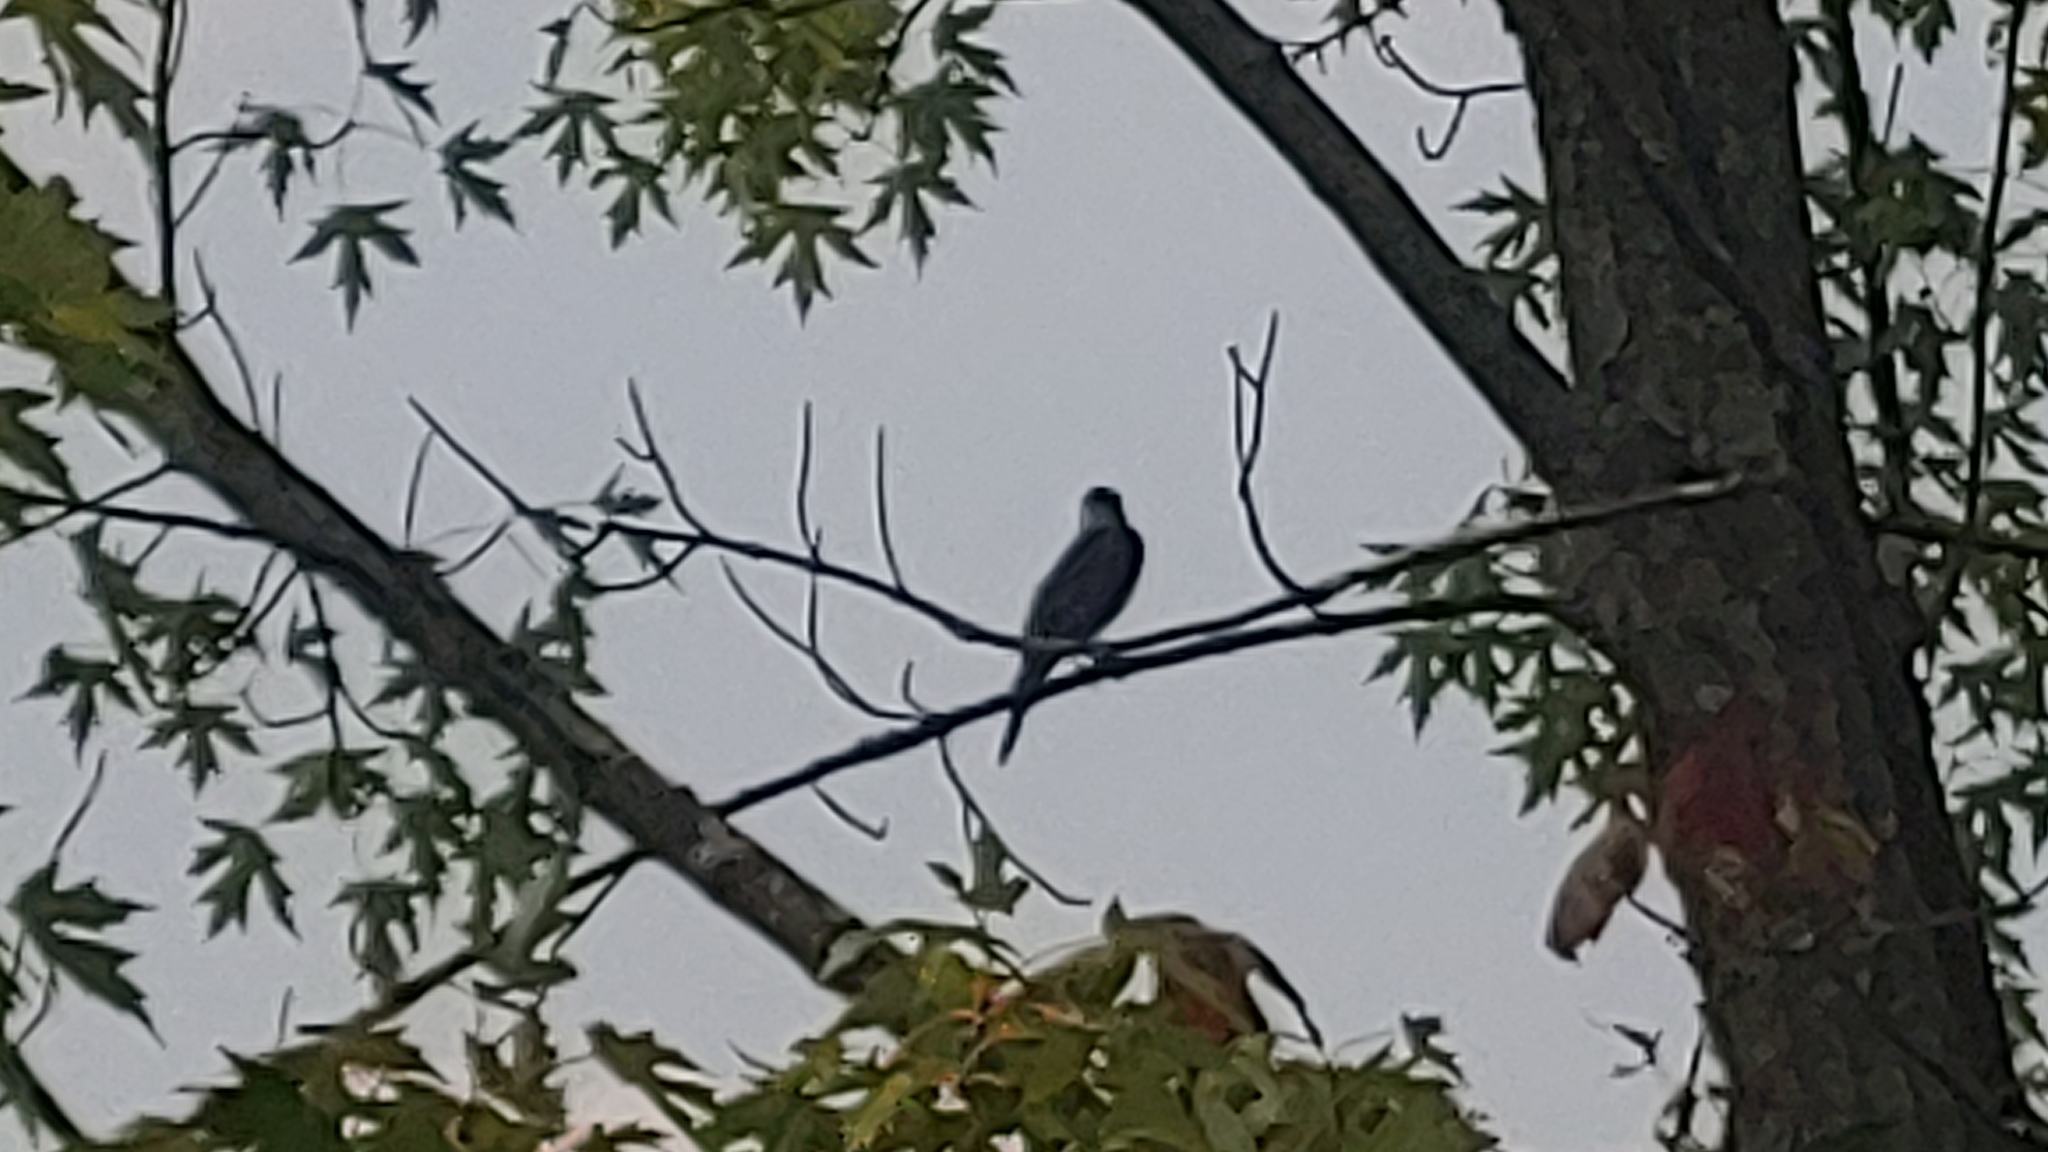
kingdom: Animalia
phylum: Chordata
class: Aves
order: Passeriformes
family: Tyrannidae
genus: Tyrannus
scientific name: Tyrannus tyrannus
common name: Eastern kingbird
